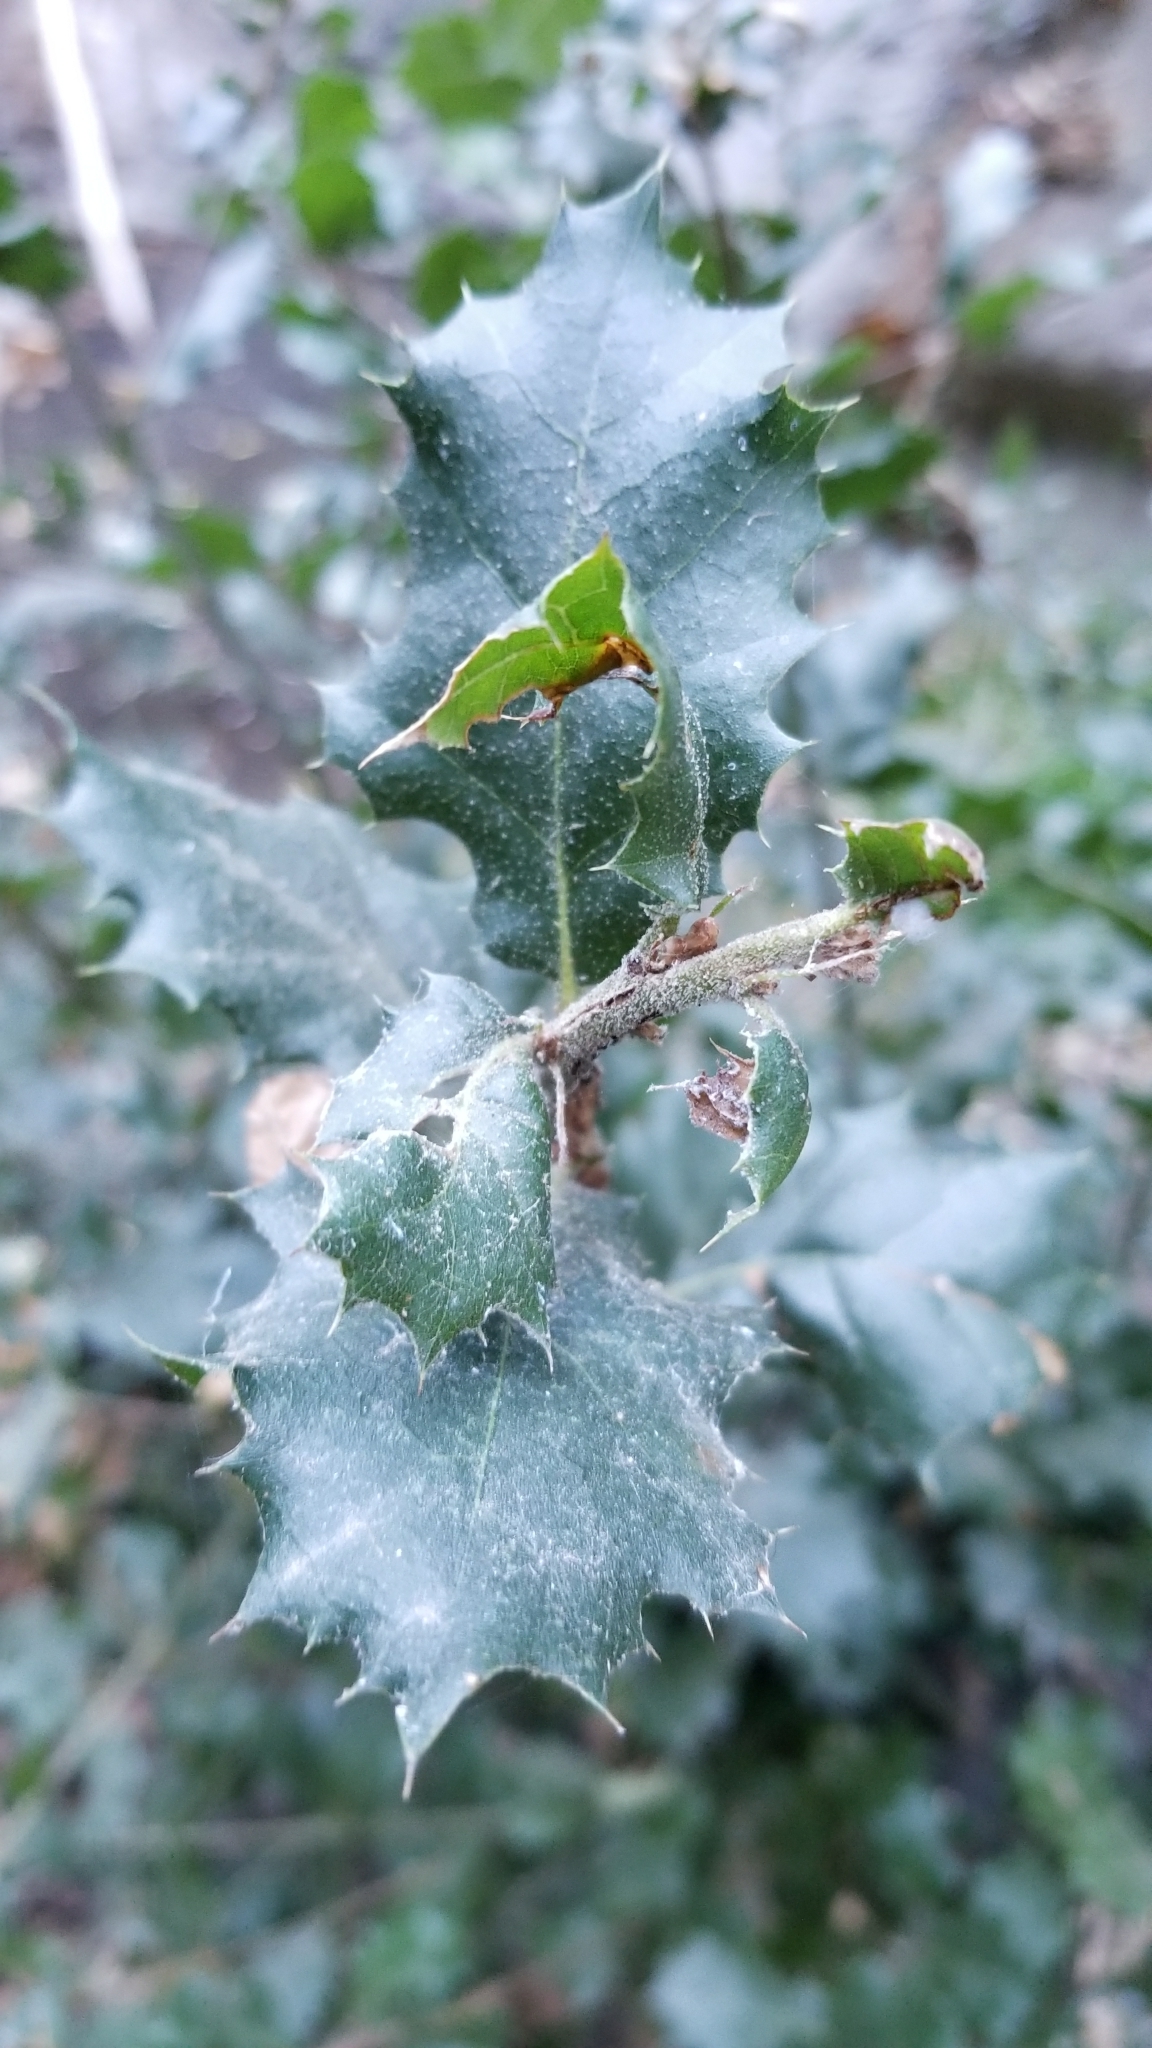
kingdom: Plantae
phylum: Tracheophyta
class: Magnoliopsida
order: Fagales
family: Fagaceae
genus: Quercus
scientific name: Quercus agrifolia
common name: California live oak
